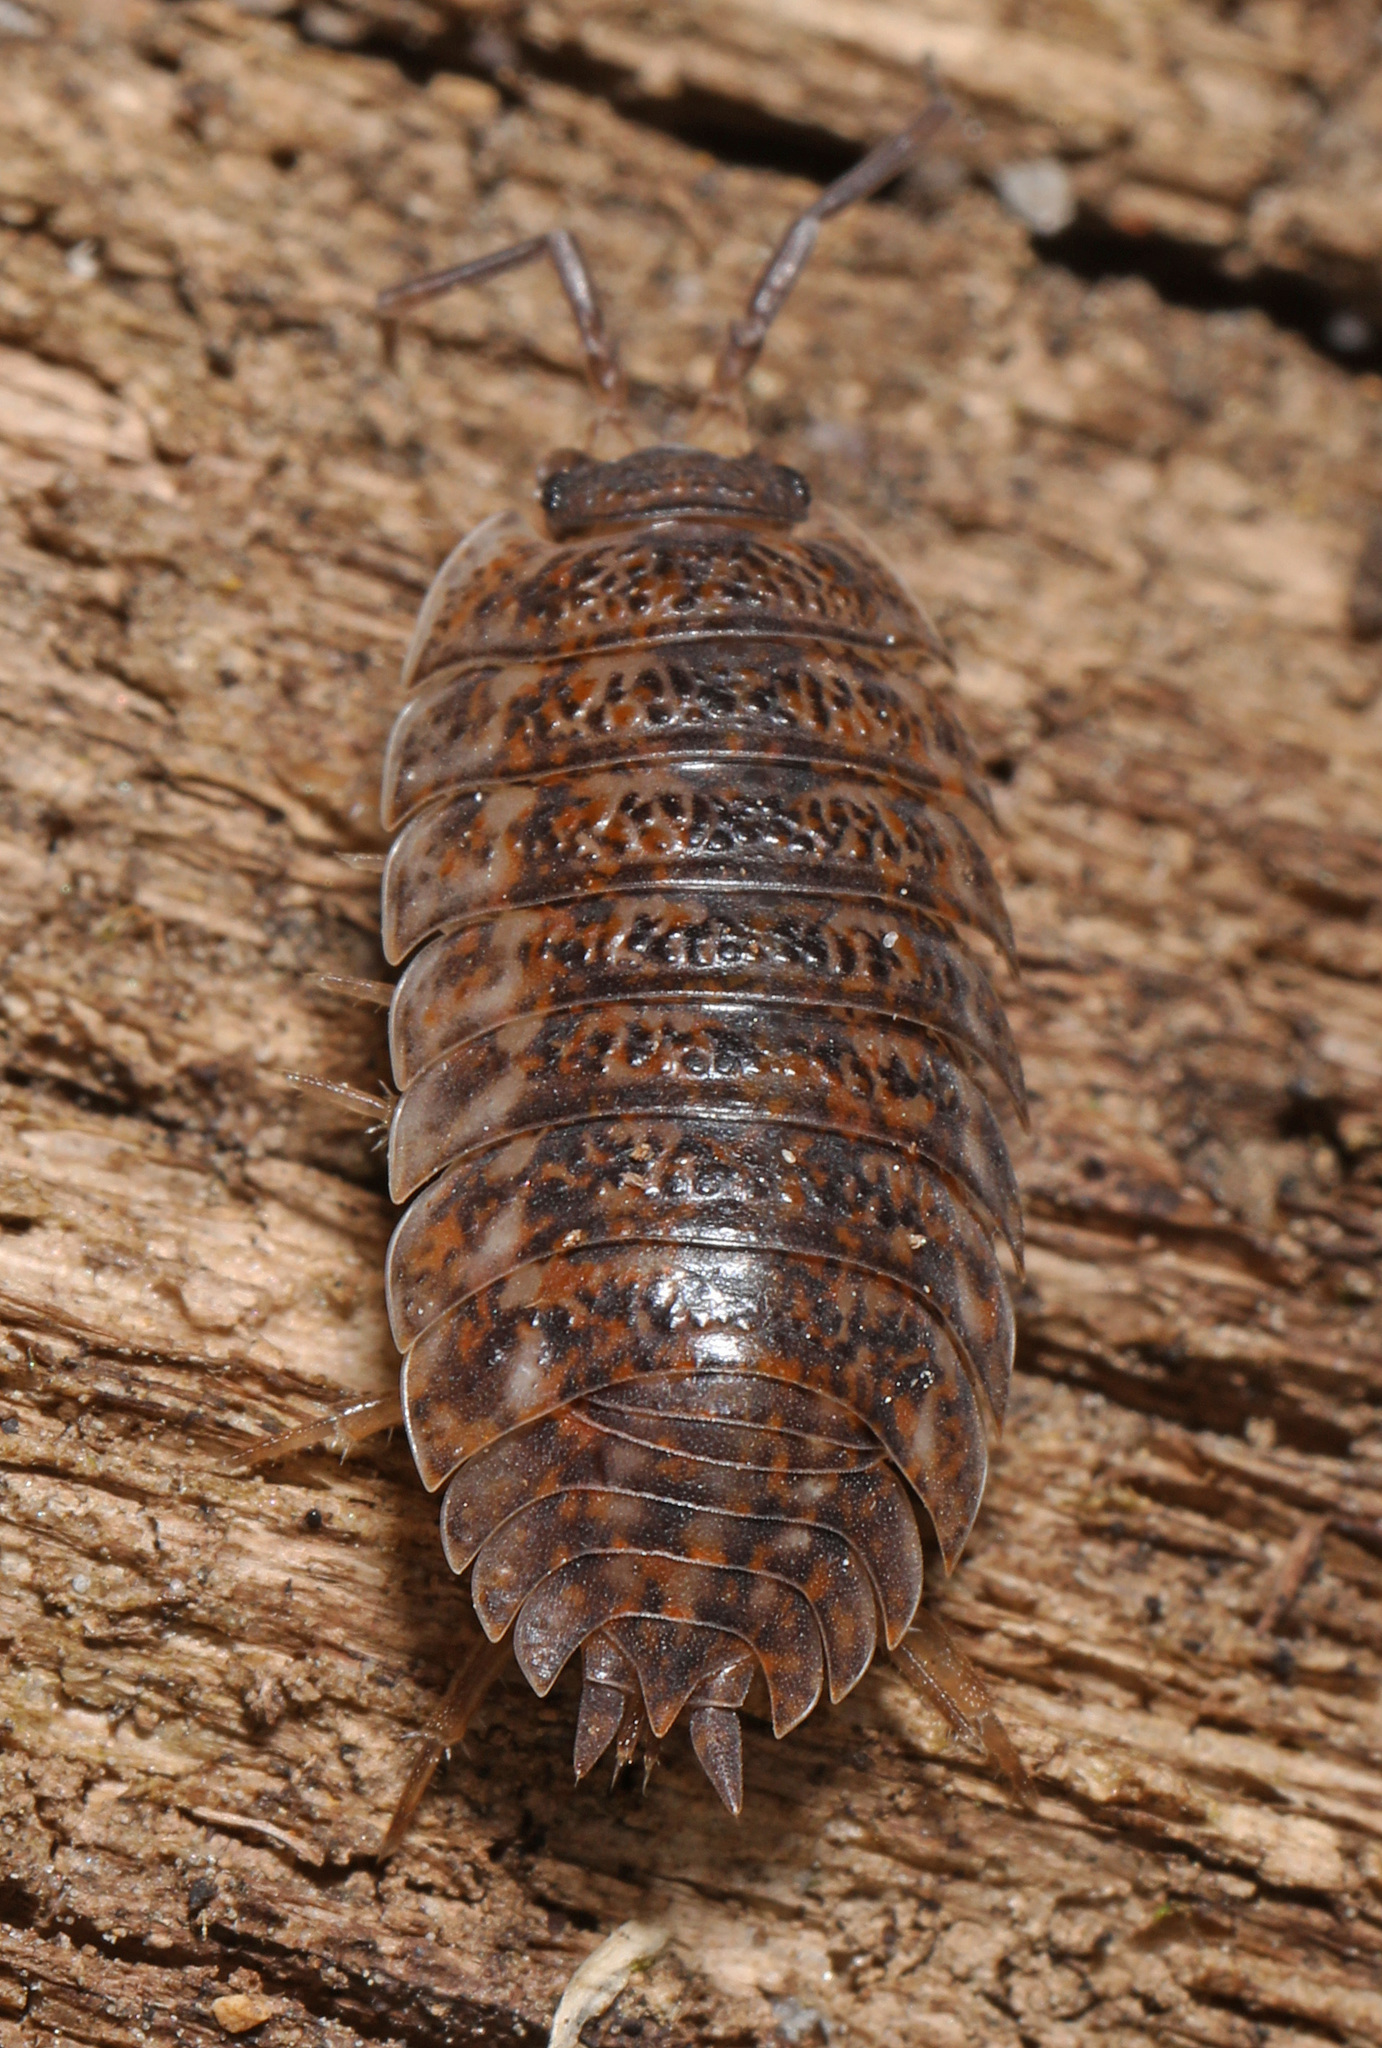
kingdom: Animalia
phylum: Arthropoda
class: Malacostraca
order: Isopoda
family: Trachelipodidae
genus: Trachelipus
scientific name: Trachelipus rathkii
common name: Isopod
